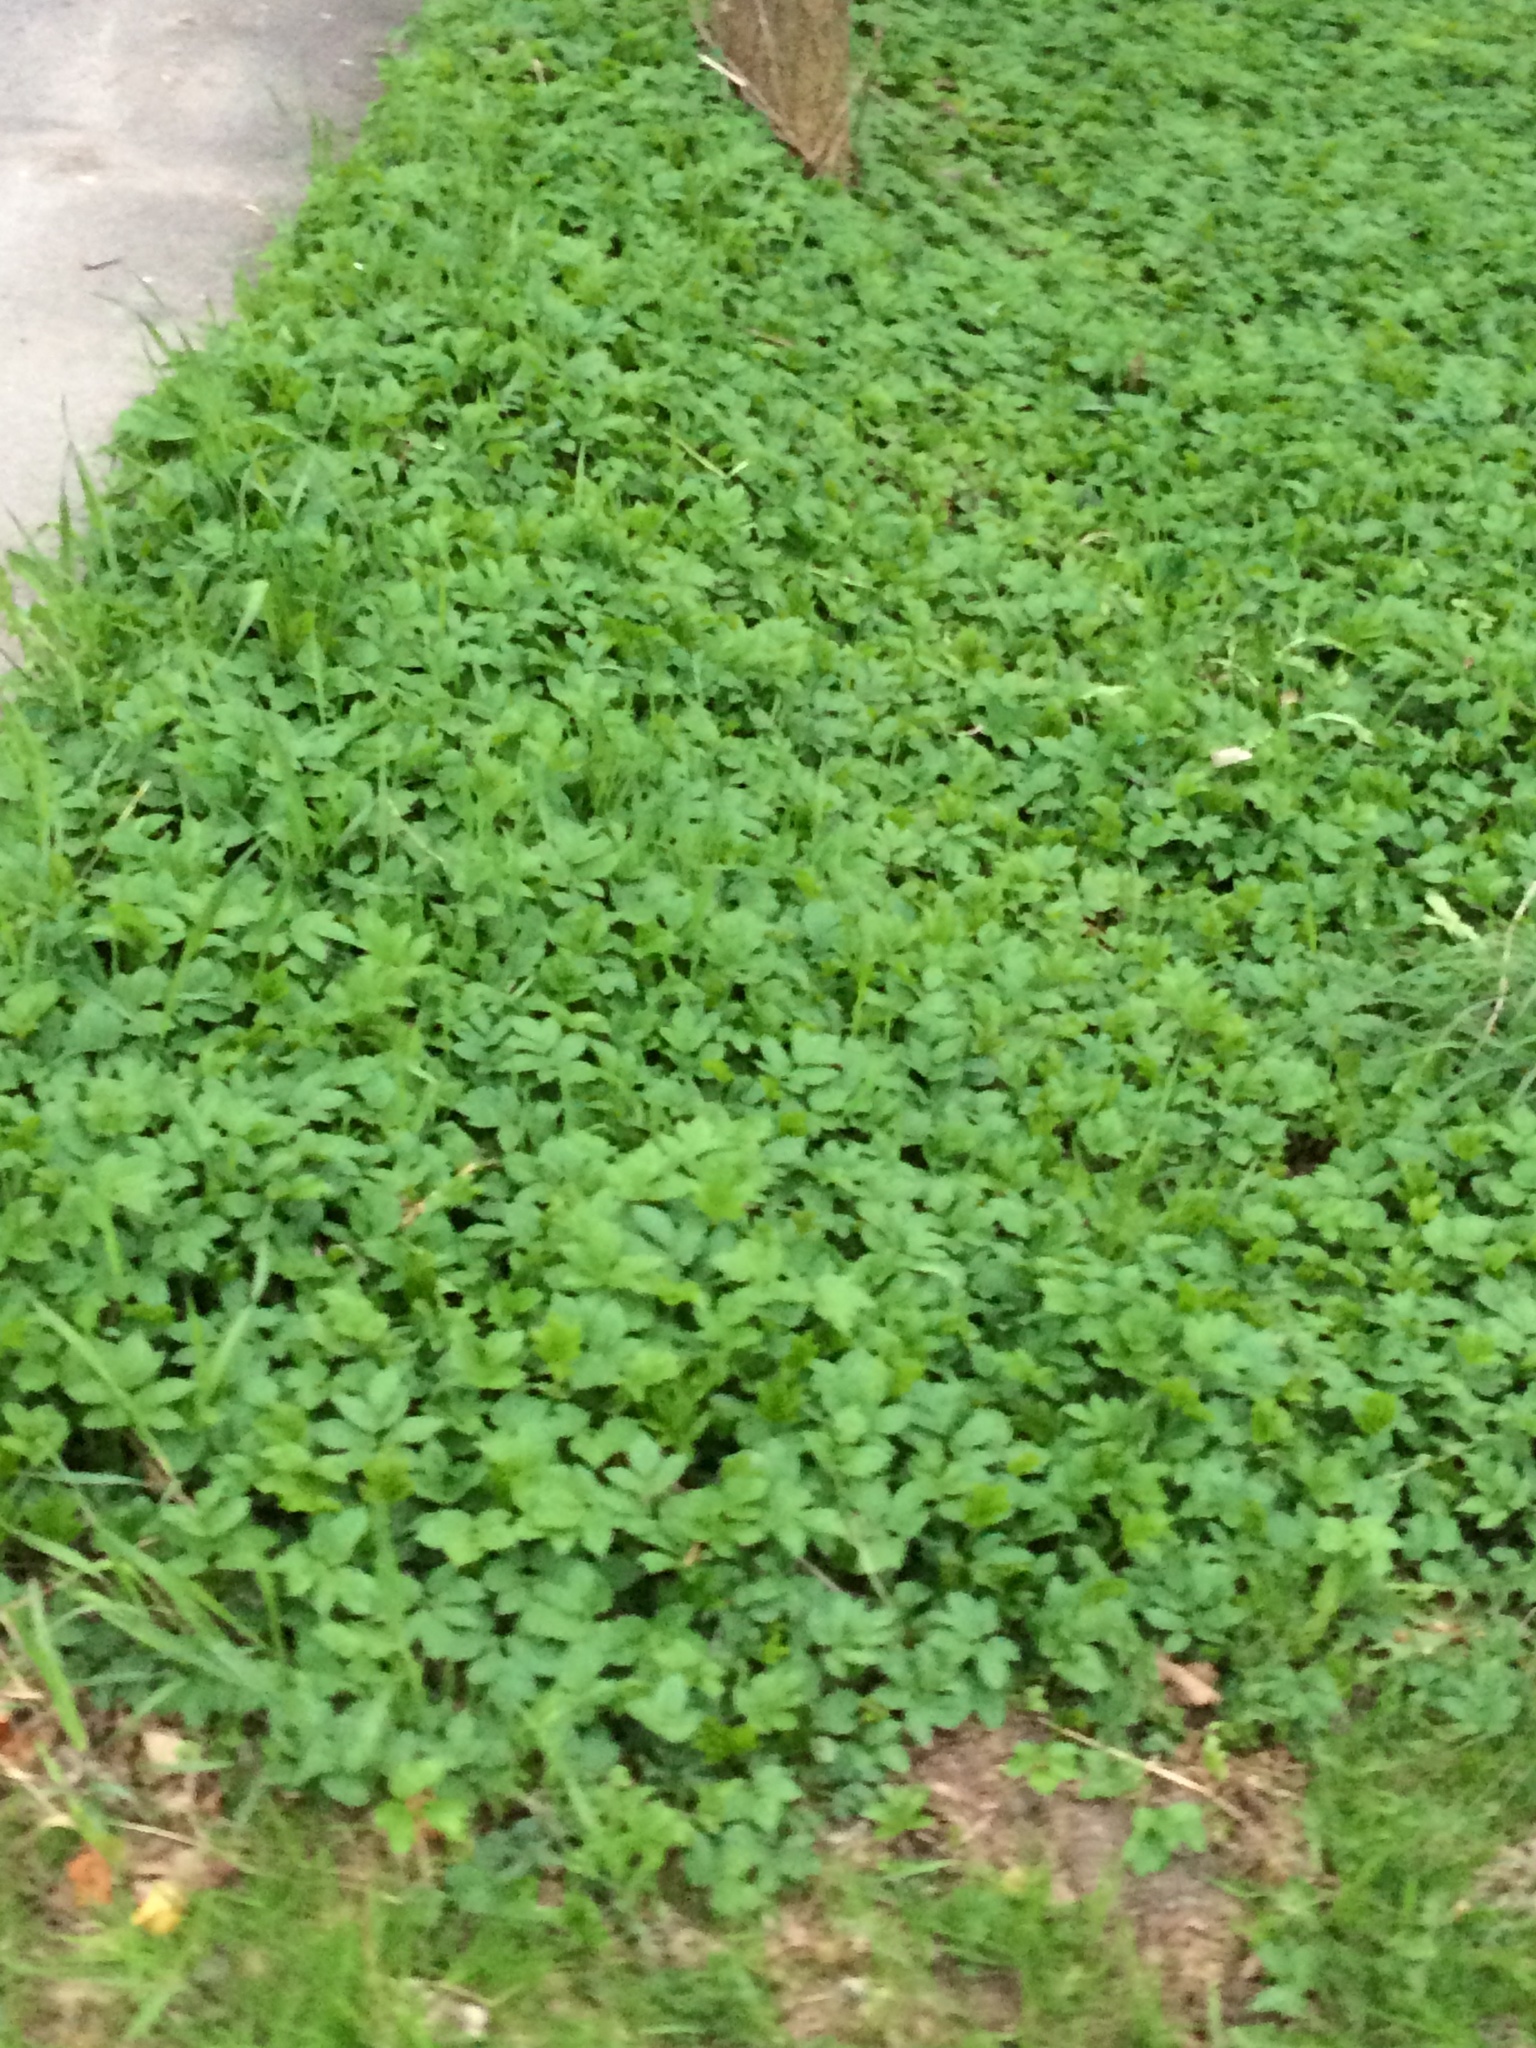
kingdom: Plantae
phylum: Tracheophyta
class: Magnoliopsida
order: Apiales
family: Apiaceae
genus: Aegopodium
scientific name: Aegopodium podagraria
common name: Ground-elder
